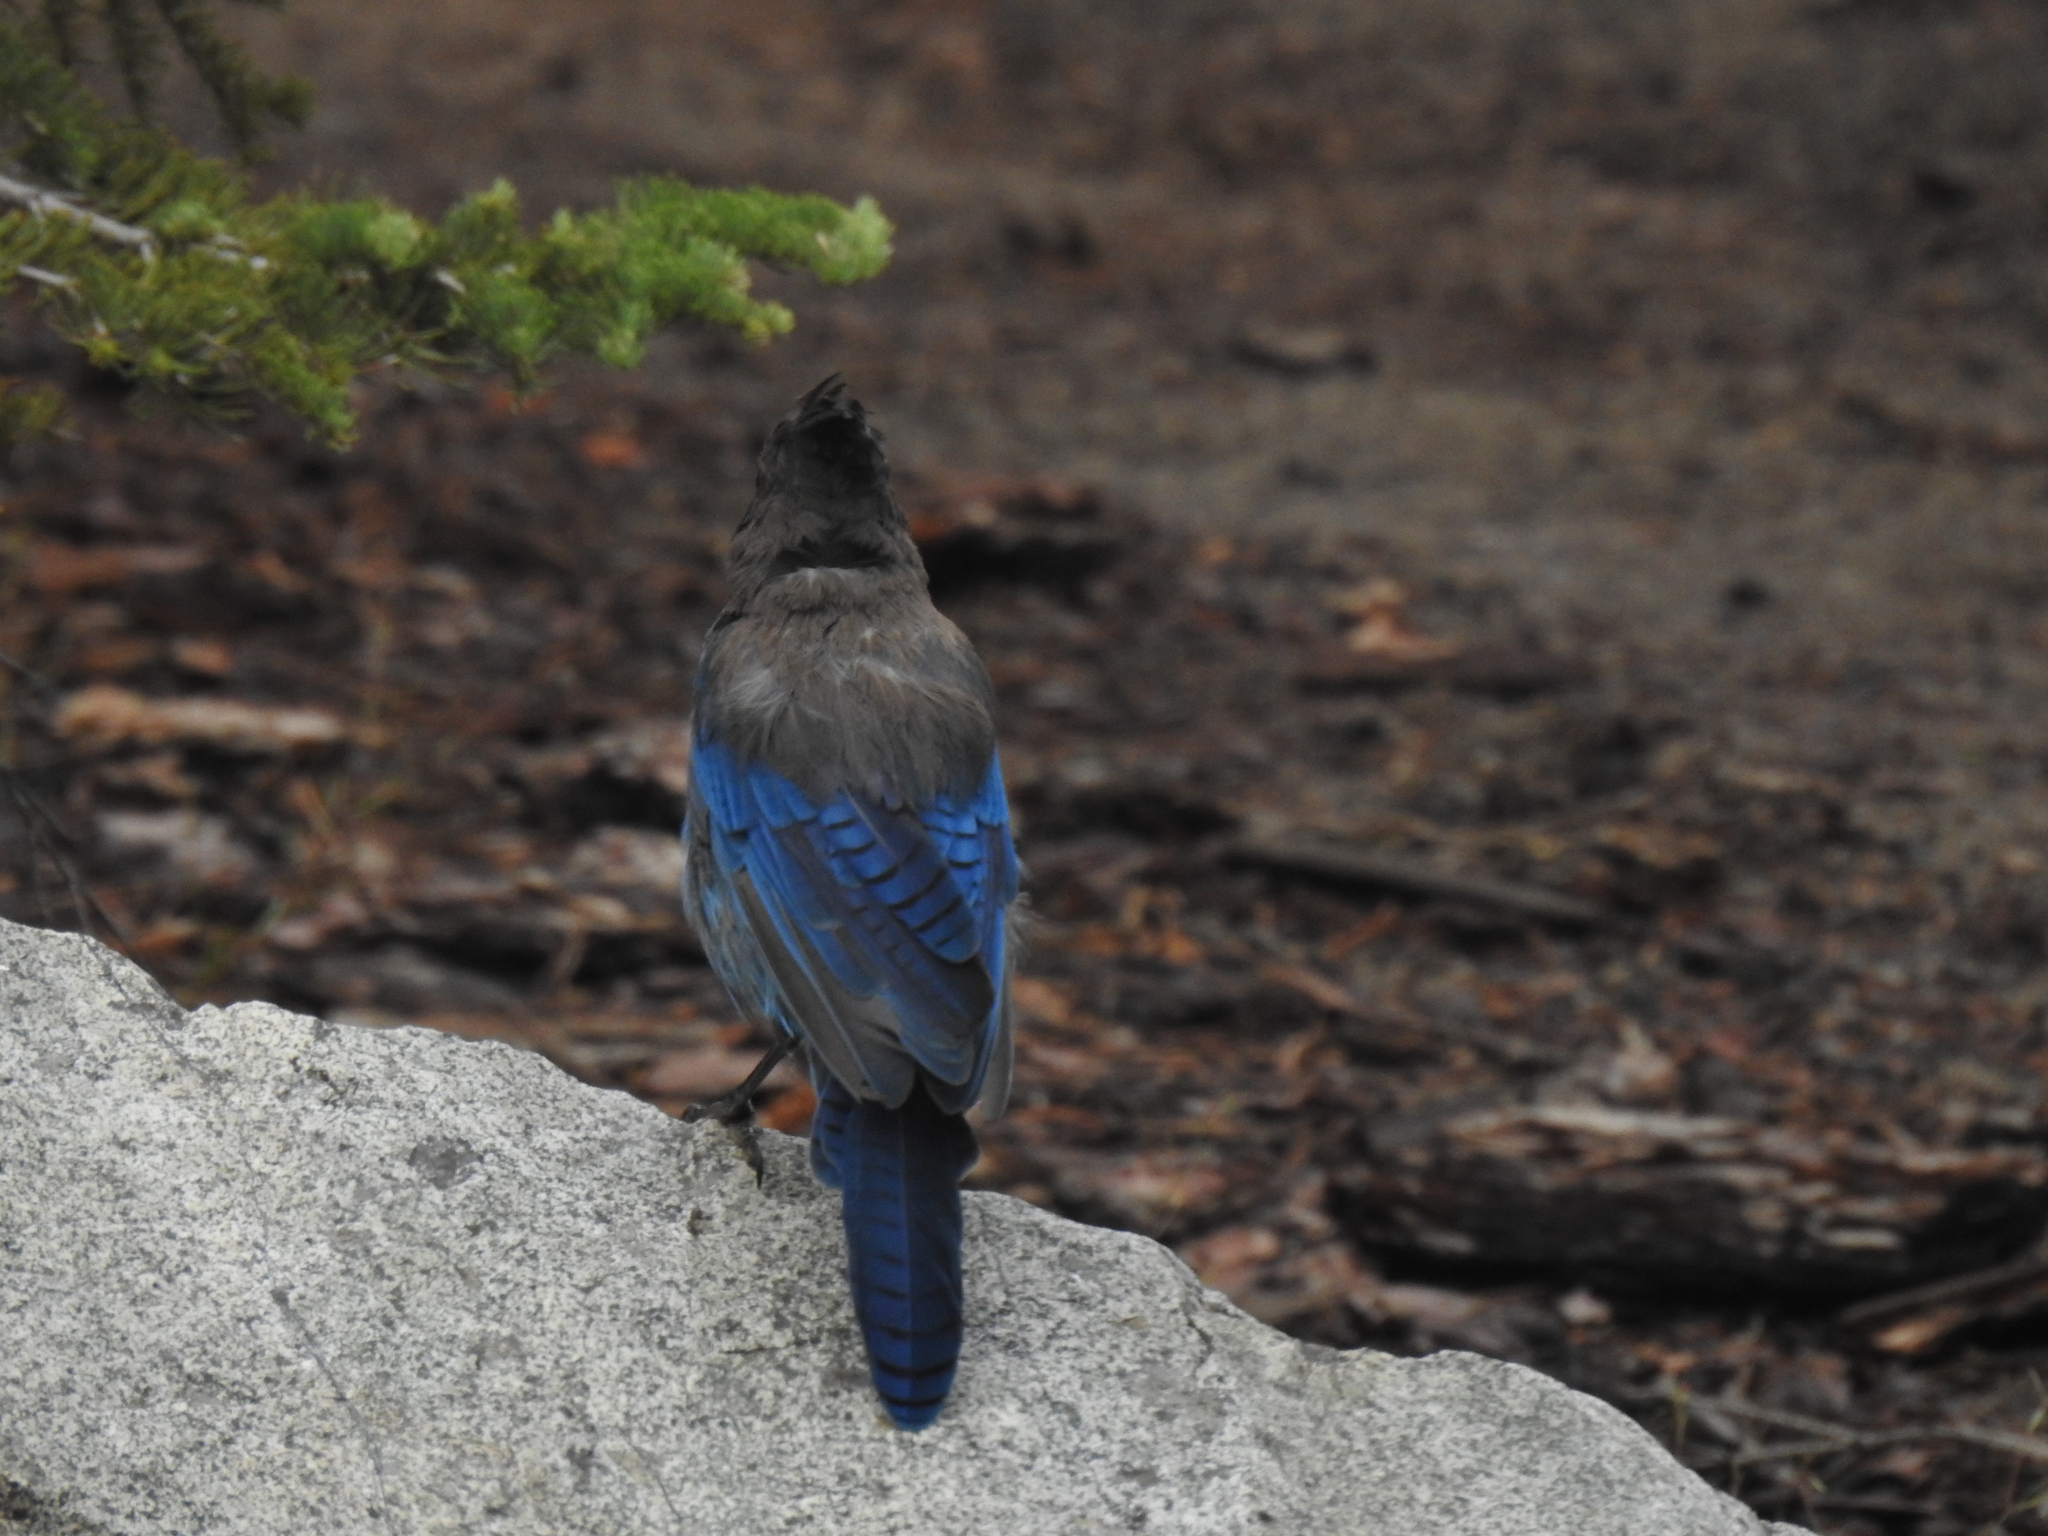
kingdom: Animalia
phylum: Chordata
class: Aves
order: Passeriformes
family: Corvidae
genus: Cyanocitta
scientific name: Cyanocitta stelleri
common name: Steller's jay
